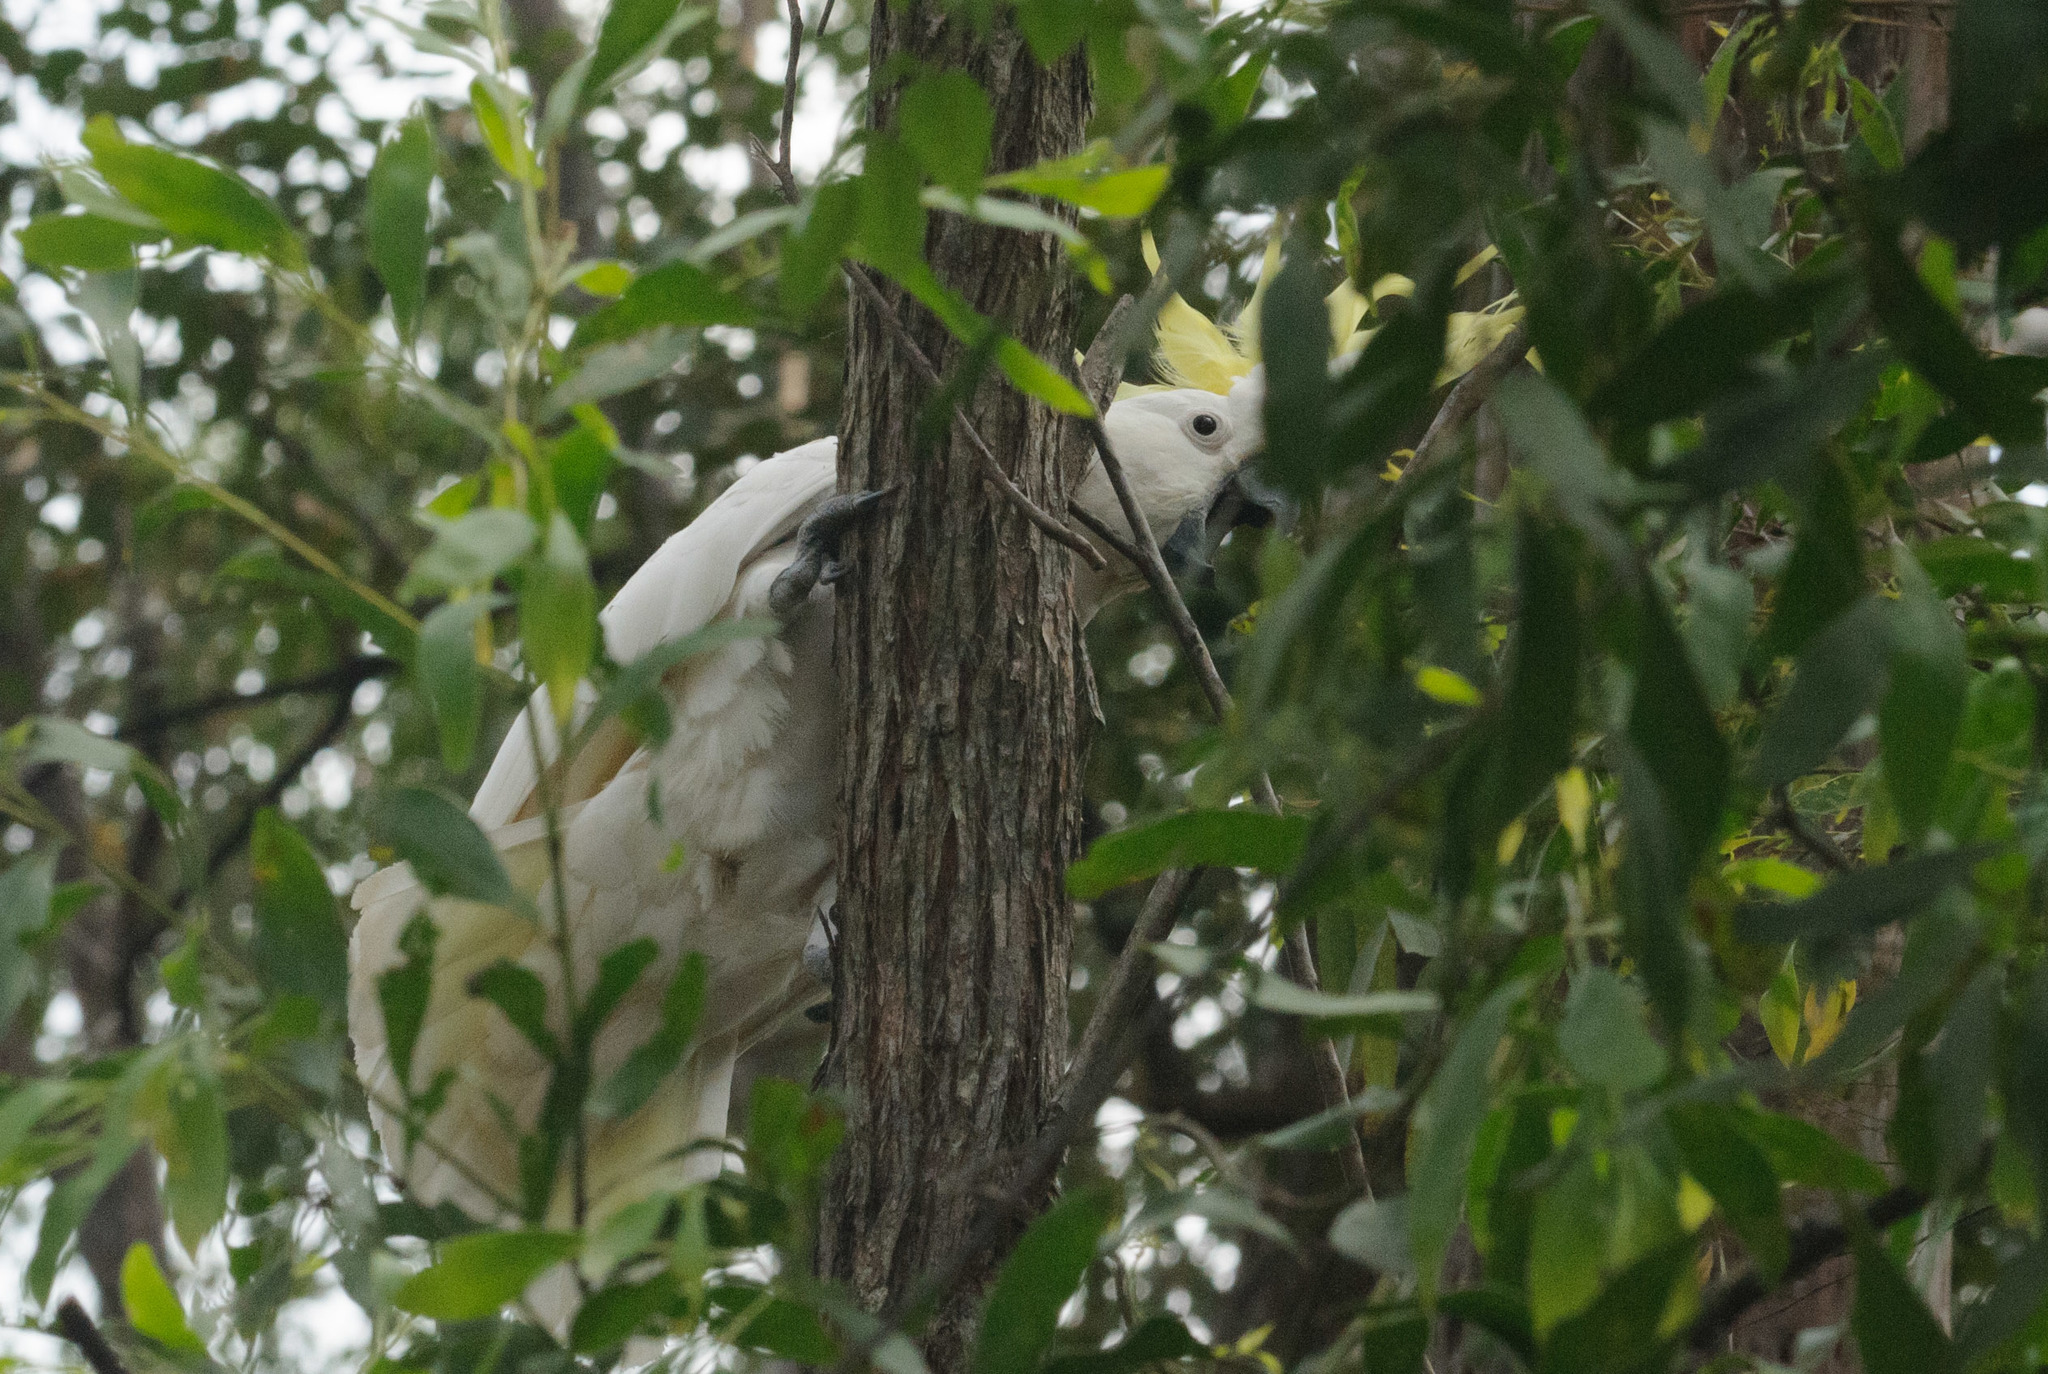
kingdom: Animalia
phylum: Chordata
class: Aves
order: Psittaciformes
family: Psittacidae
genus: Cacatua
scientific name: Cacatua galerita
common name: Sulphur-crested cockatoo
